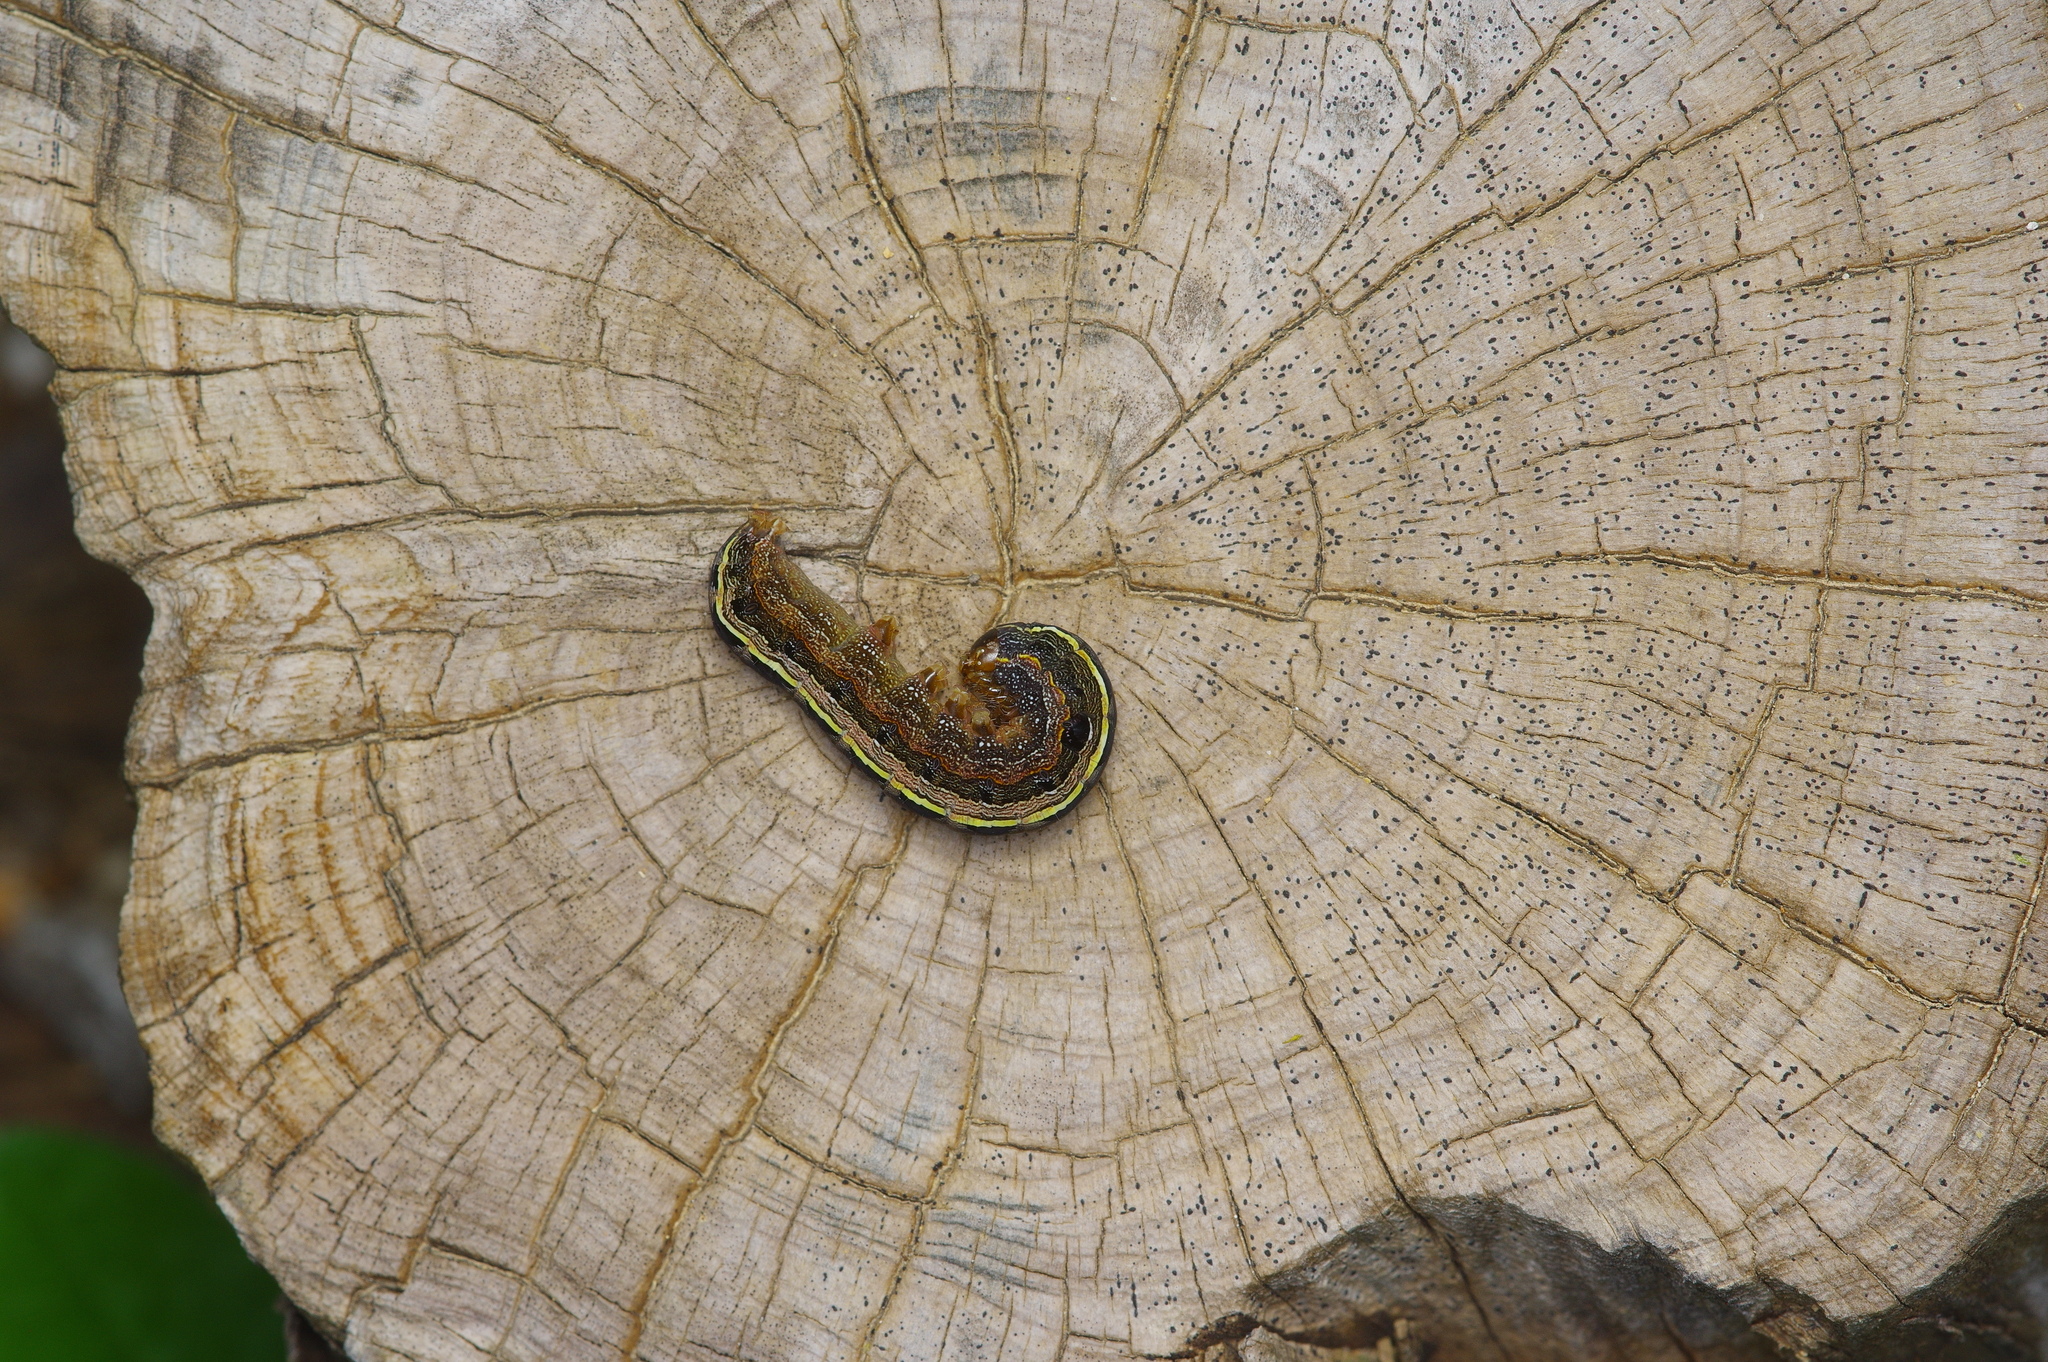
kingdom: Animalia
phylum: Arthropoda
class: Insecta
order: Lepidoptera
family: Noctuidae
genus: Spodoptera
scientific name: Spodoptera ornithogalli
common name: Yellow-striped armyworm
